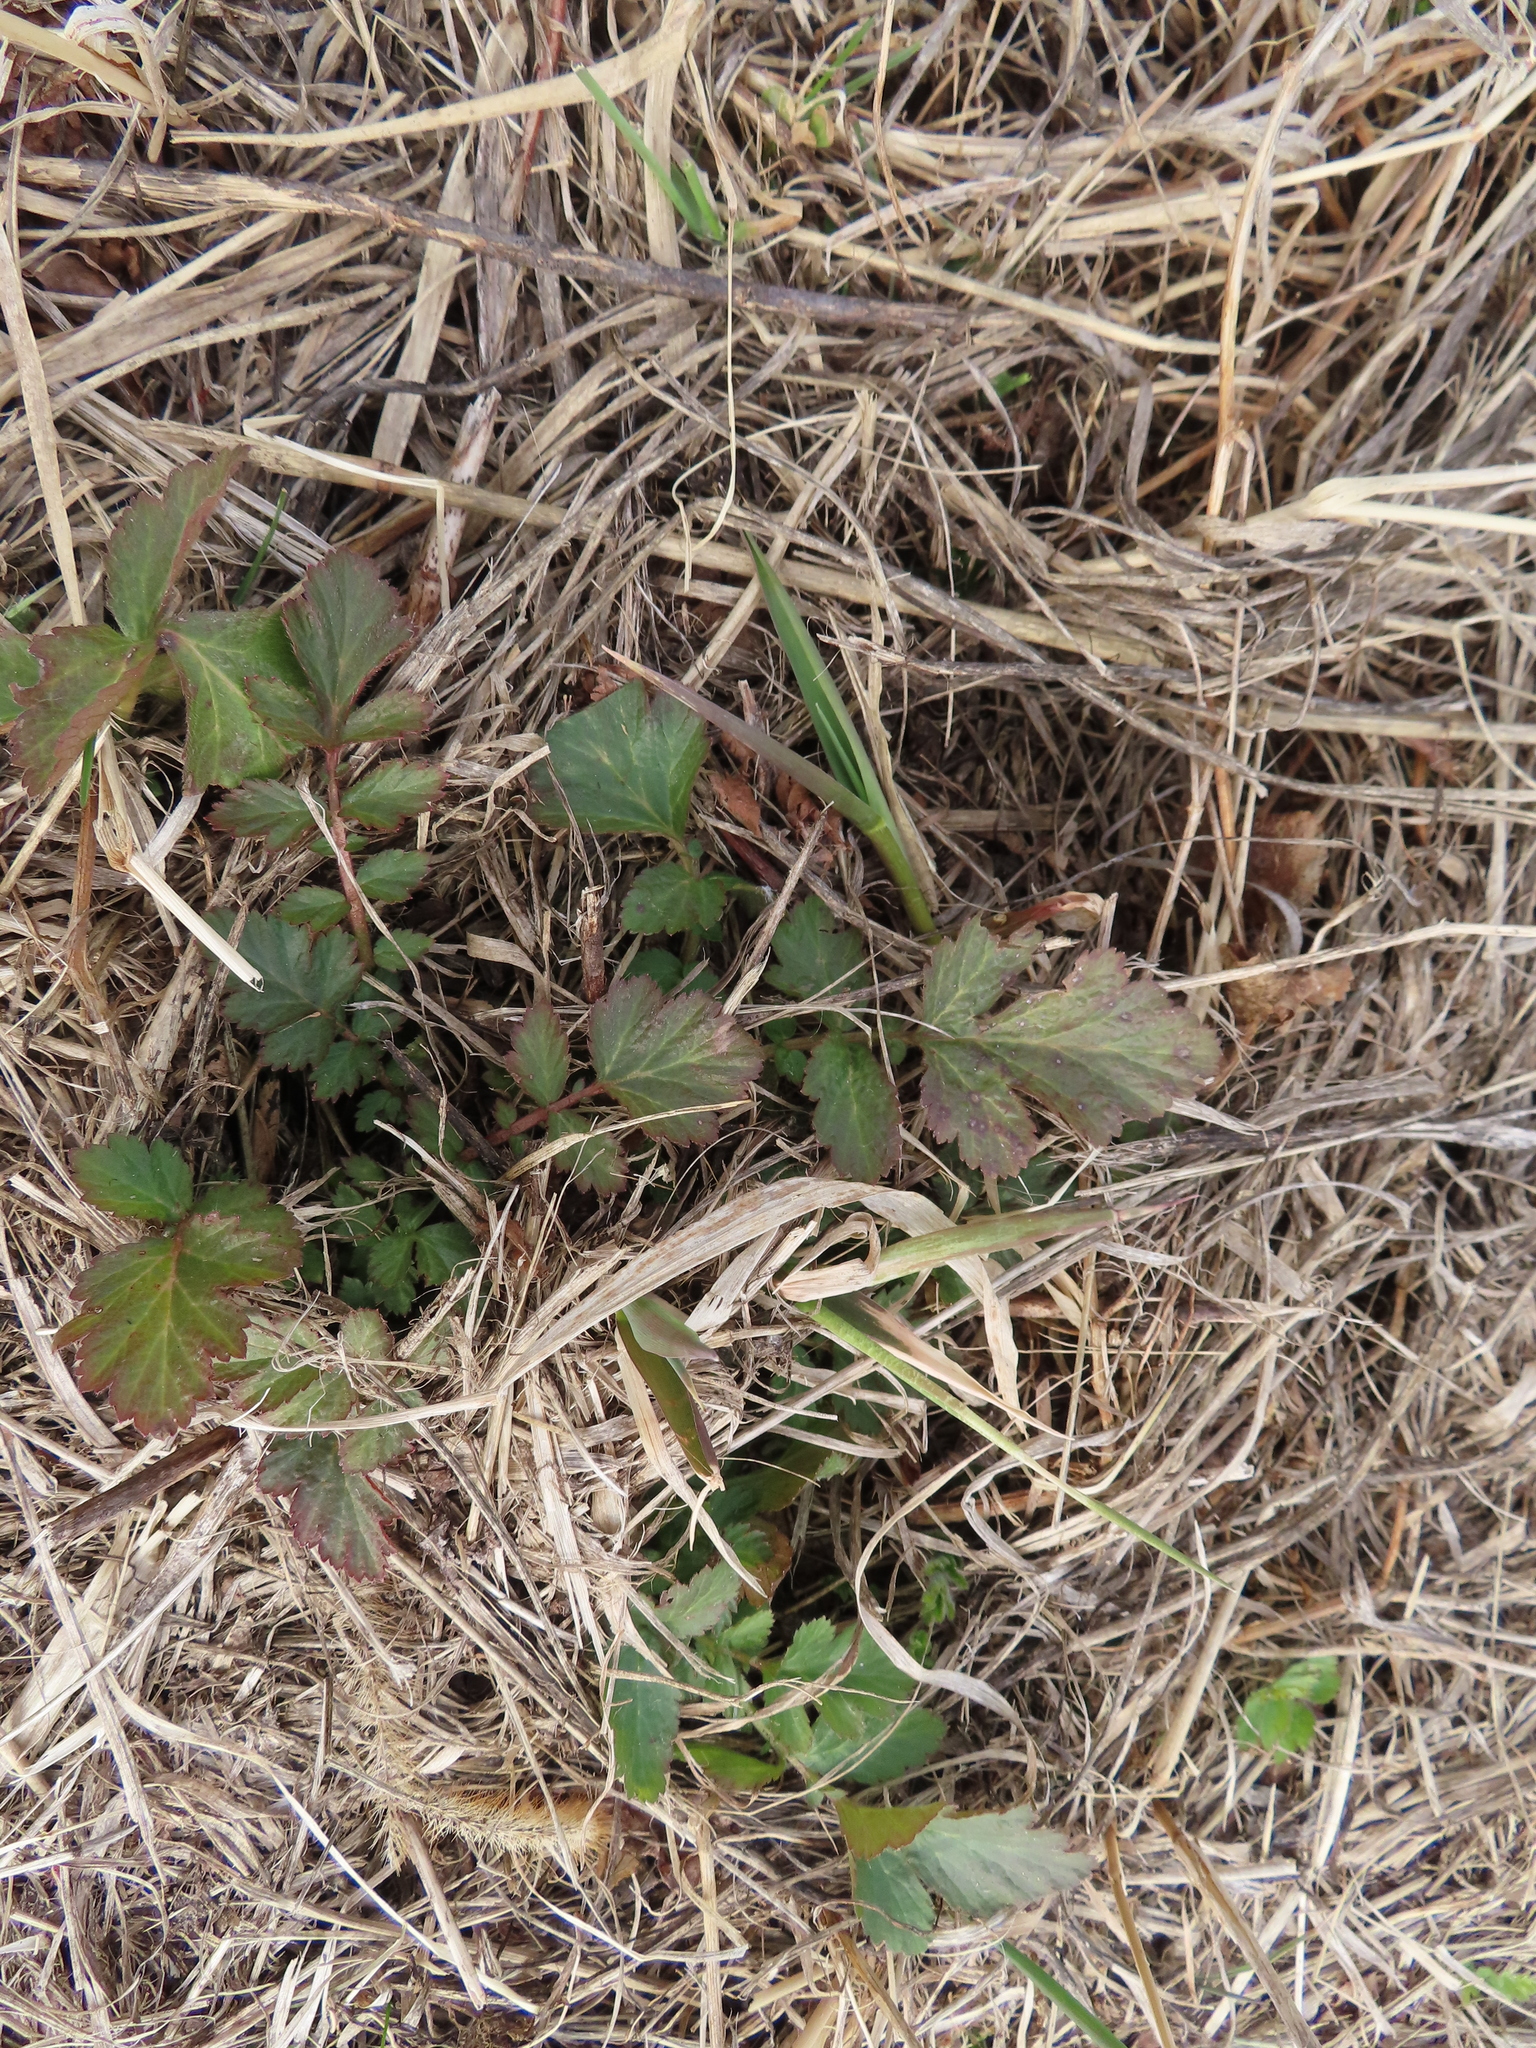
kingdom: Plantae
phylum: Tracheophyta
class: Magnoliopsida
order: Rosales
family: Rosaceae
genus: Geum
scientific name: Geum canadense
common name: White avens
